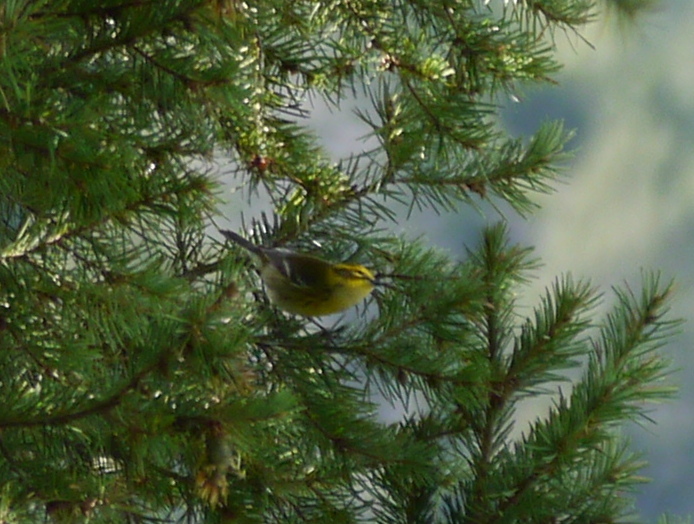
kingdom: Animalia
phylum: Chordata
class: Aves
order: Passeriformes
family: Parulidae
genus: Setophaga
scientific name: Setophaga occidentalis
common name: Hermit warbler
